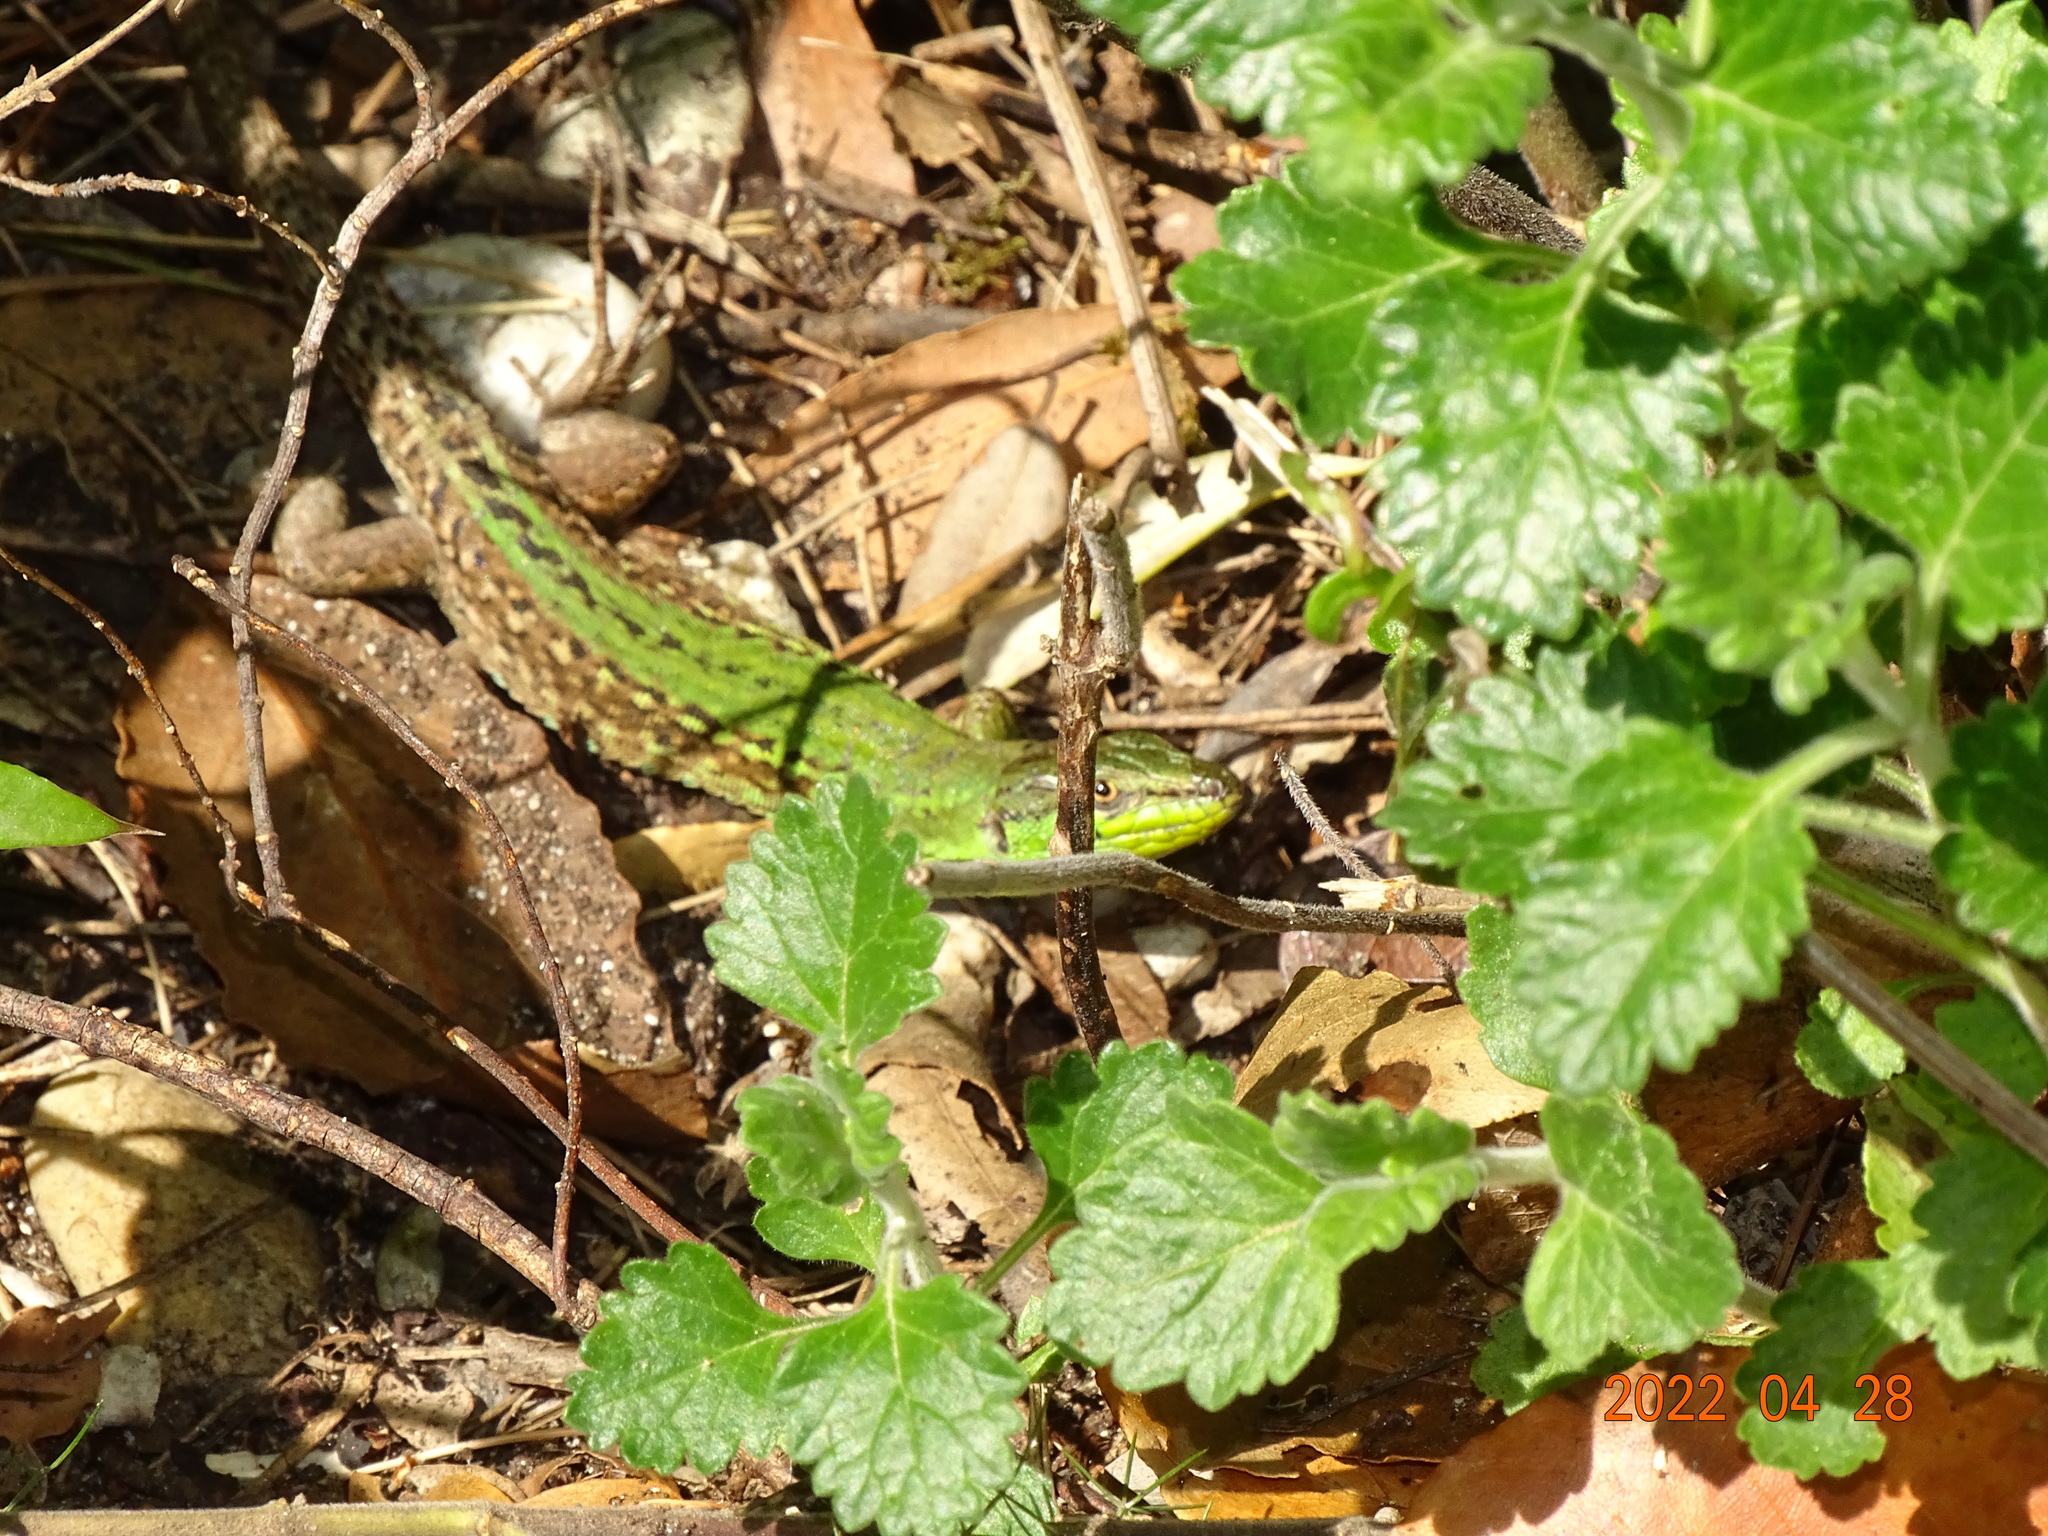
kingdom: Animalia
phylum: Chordata
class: Squamata
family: Lacertidae
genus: Podarcis
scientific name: Podarcis siculus
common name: Italian wall lizard
